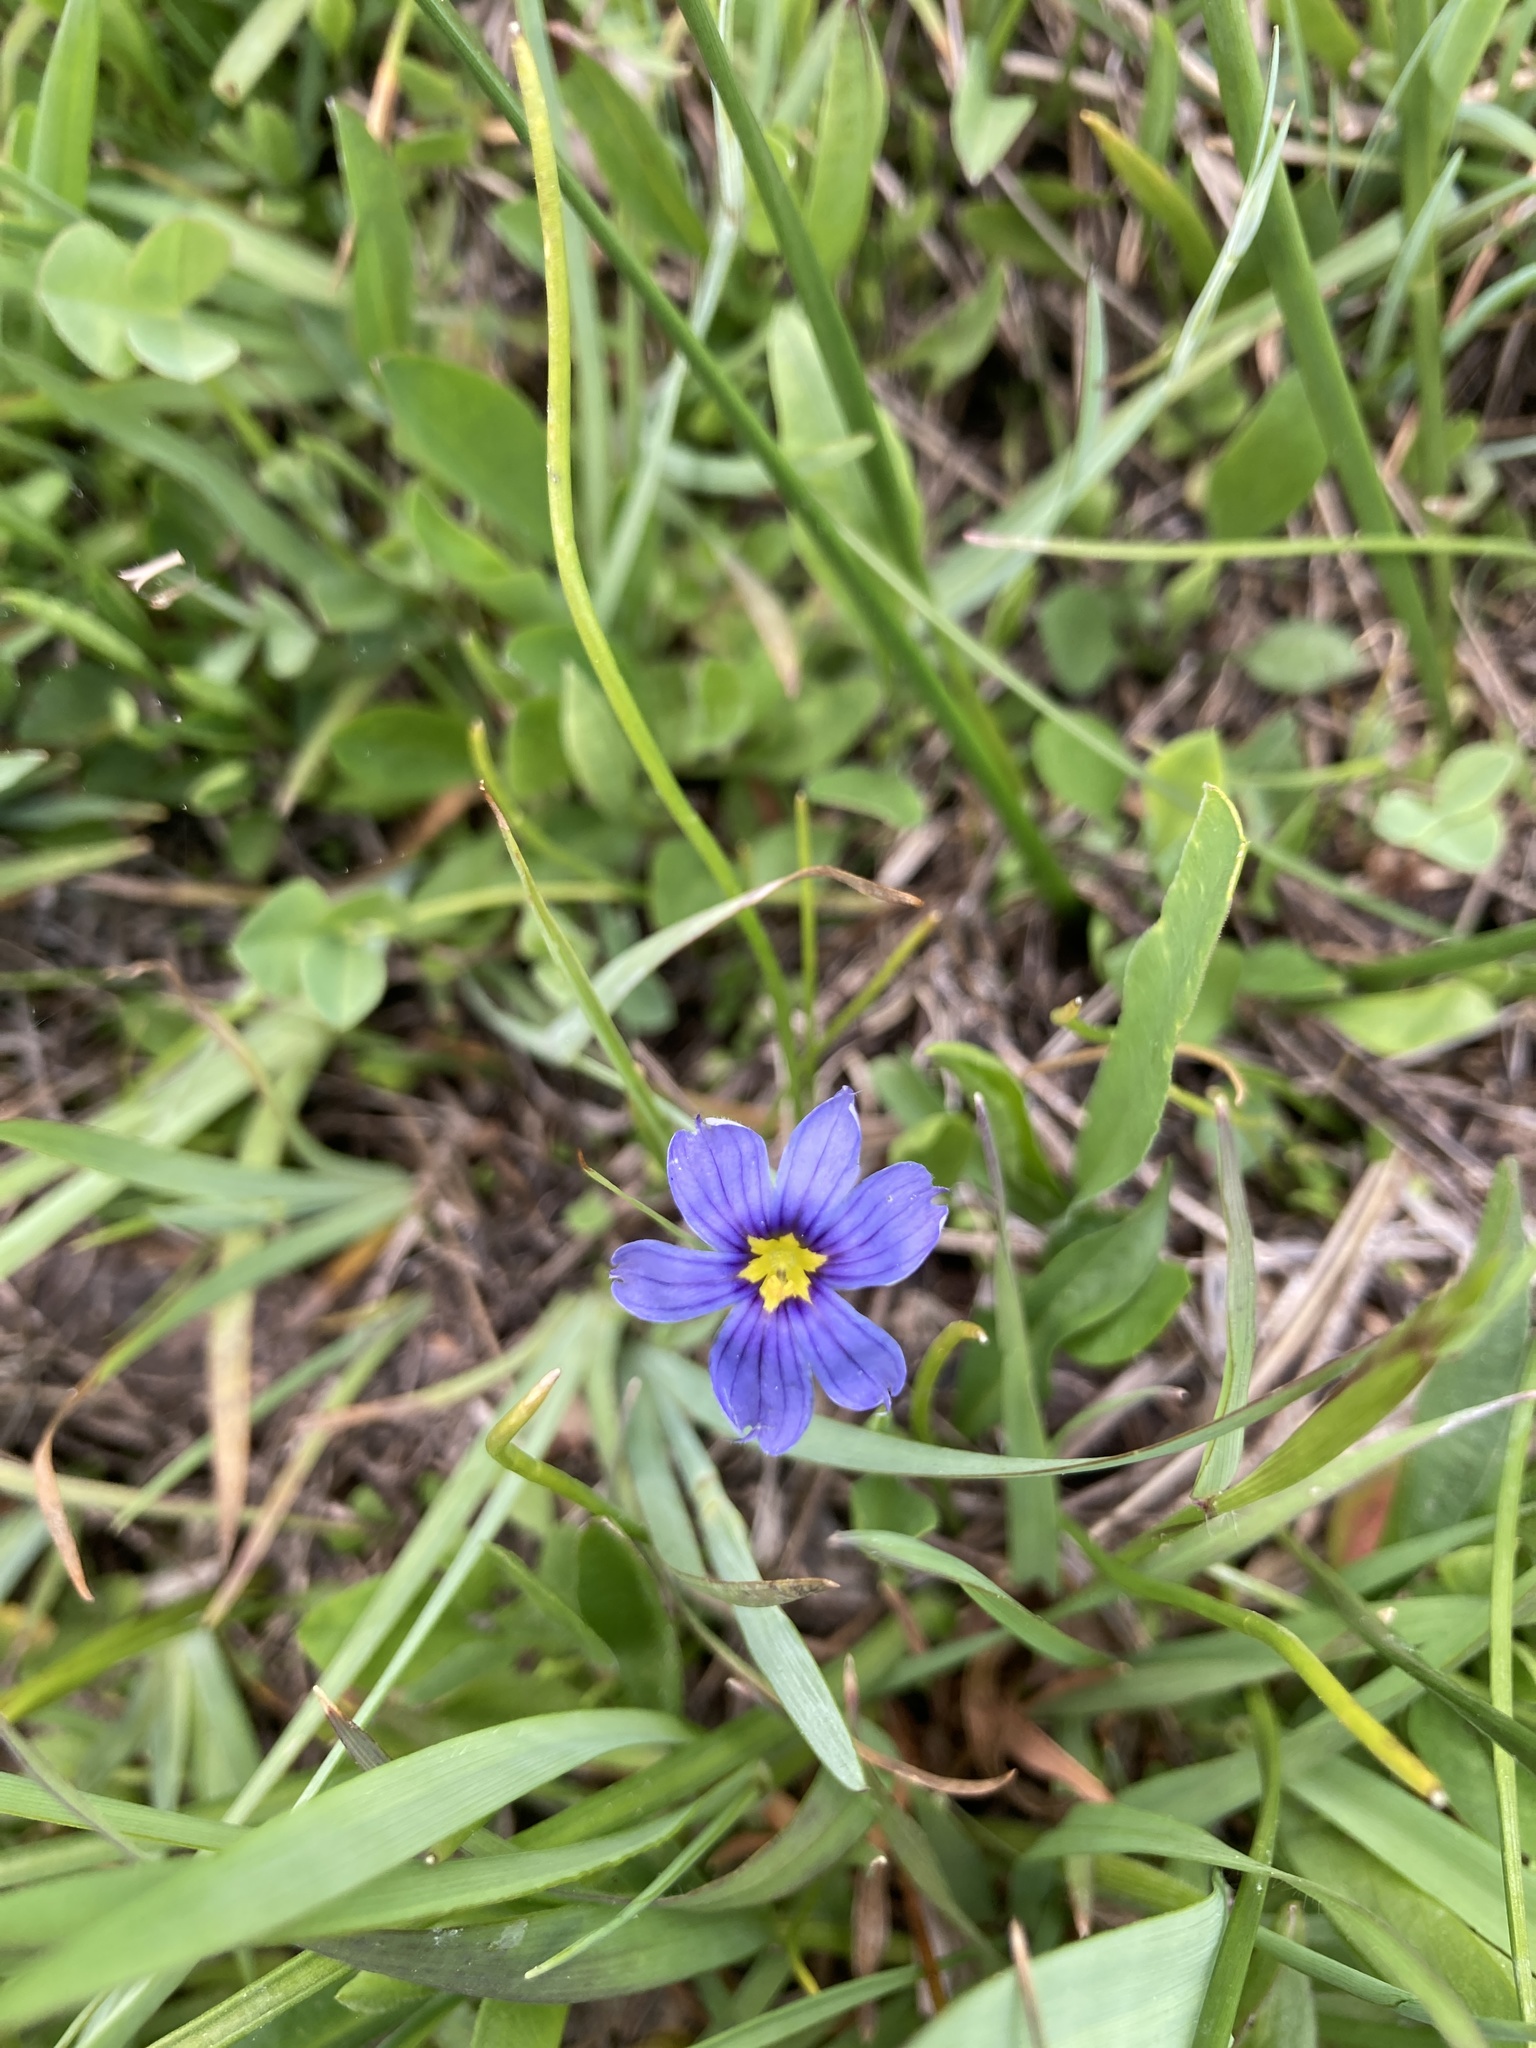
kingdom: Plantae
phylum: Tracheophyta
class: Liliopsida
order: Asparagales
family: Iridaceae
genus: Sisyrinchium
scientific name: Sisyrinchium bellum
